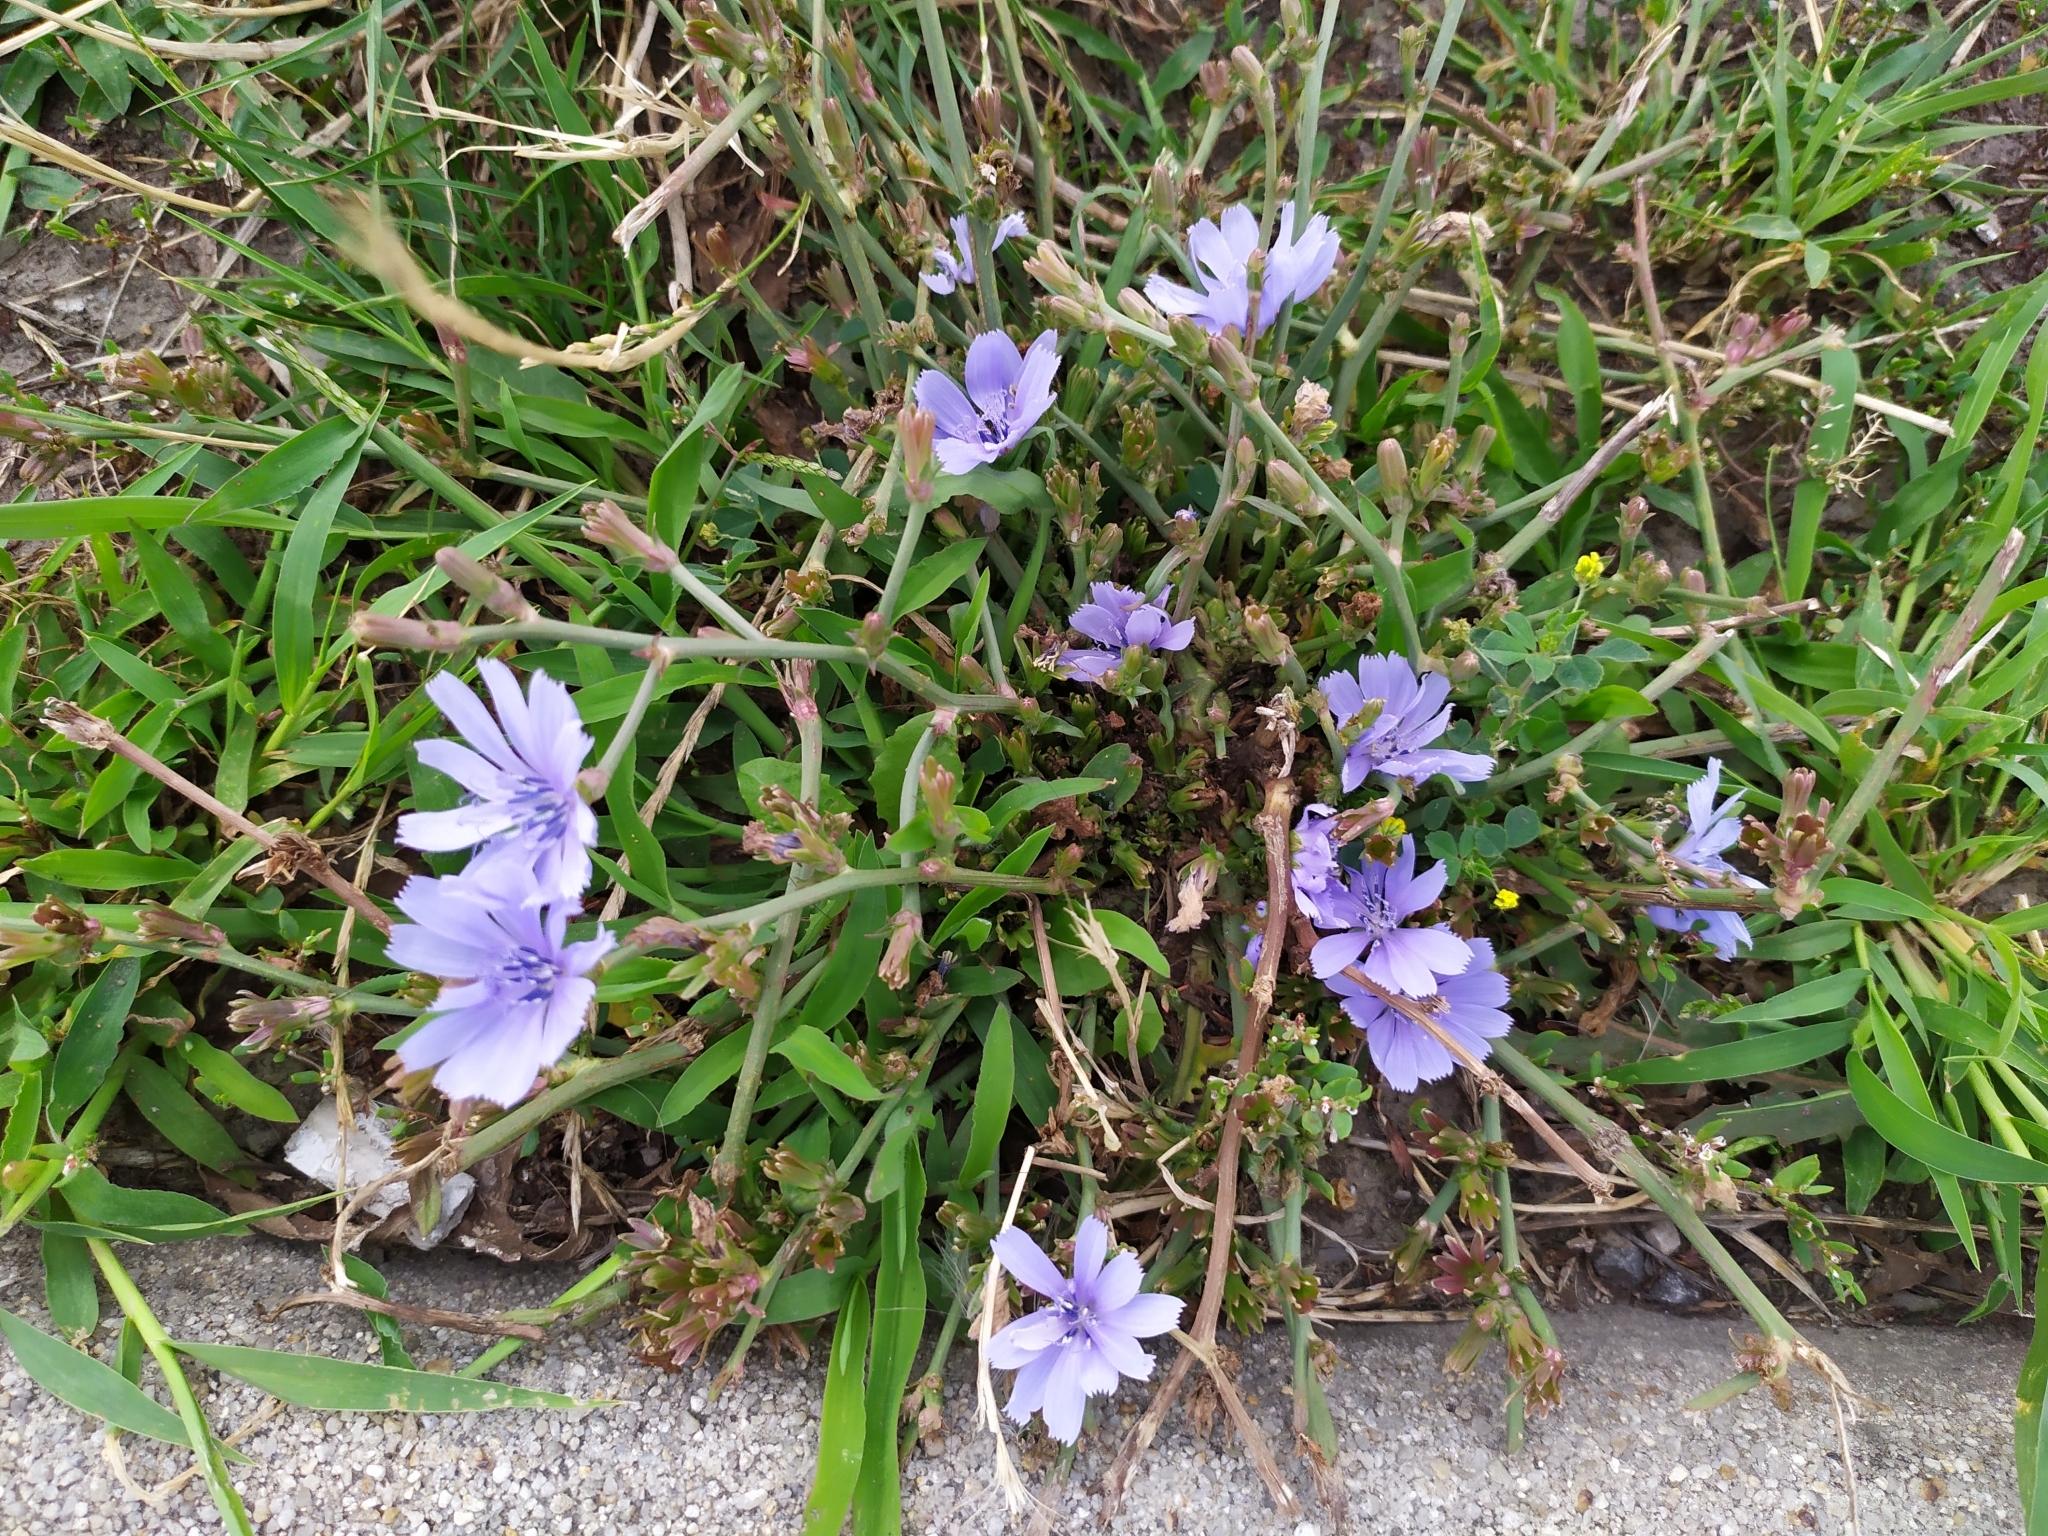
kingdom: Plantae
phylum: Tracheophyta
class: Magnoliopsida
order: Asterales
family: Asteraceae
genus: Cichorium
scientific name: Cichorium intybus
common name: Chicory
